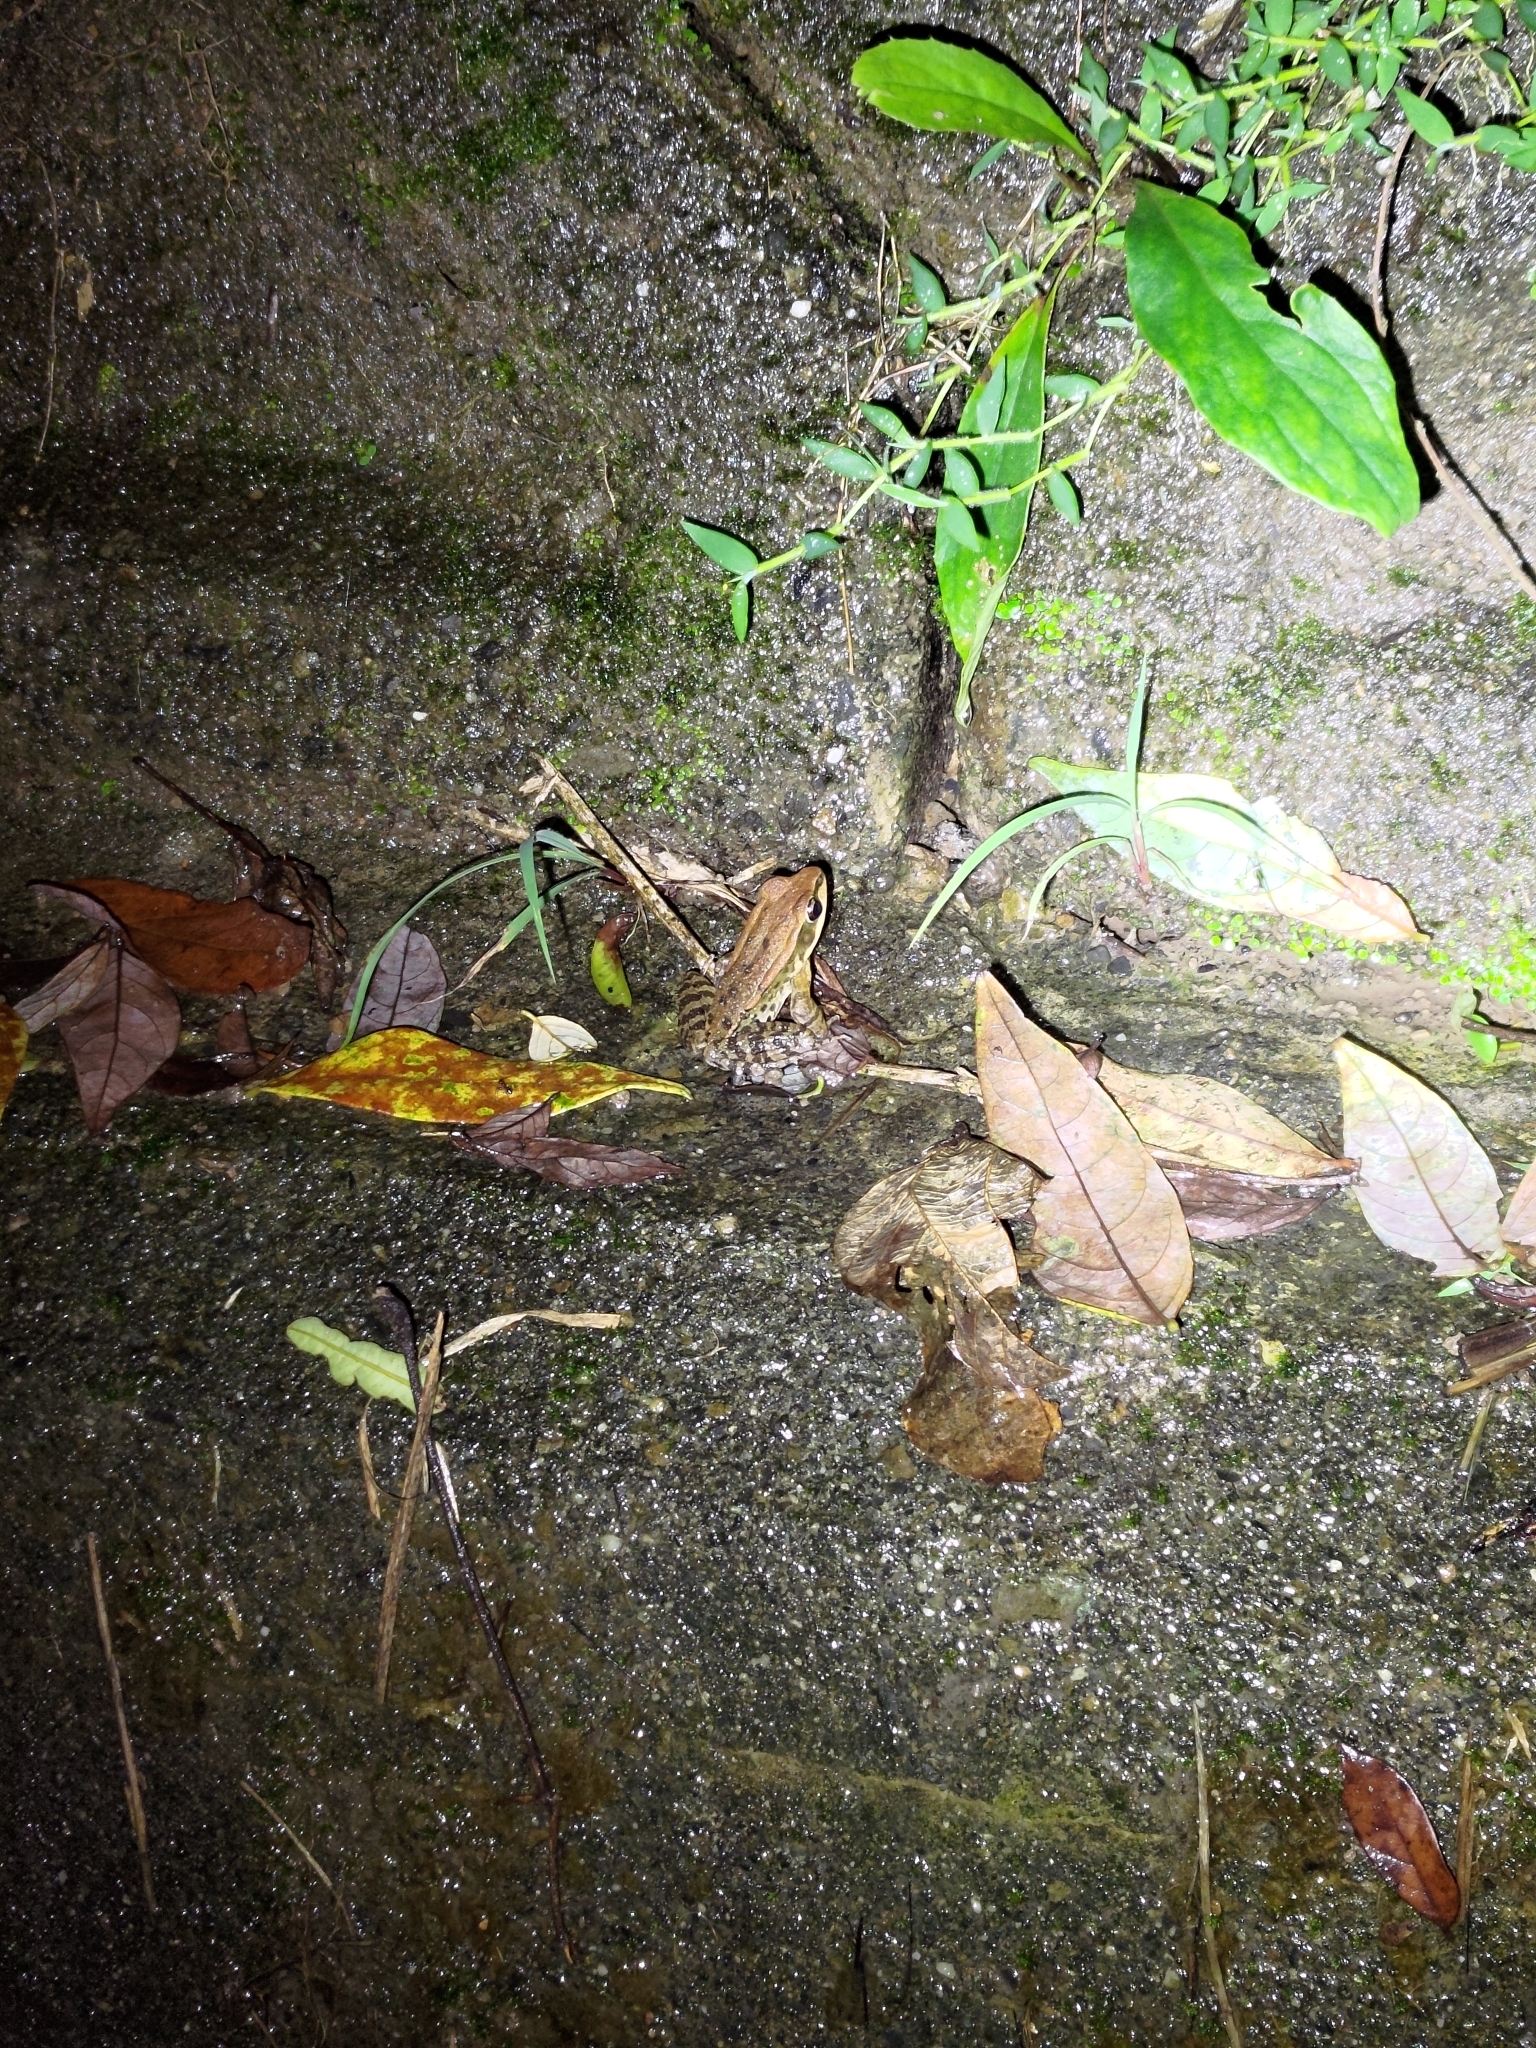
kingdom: Animalia
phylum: Chordata
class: Amphibia
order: Anura
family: Ranidae
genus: Hylarana
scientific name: Hylarana latouchii
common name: Broad-folded frog
